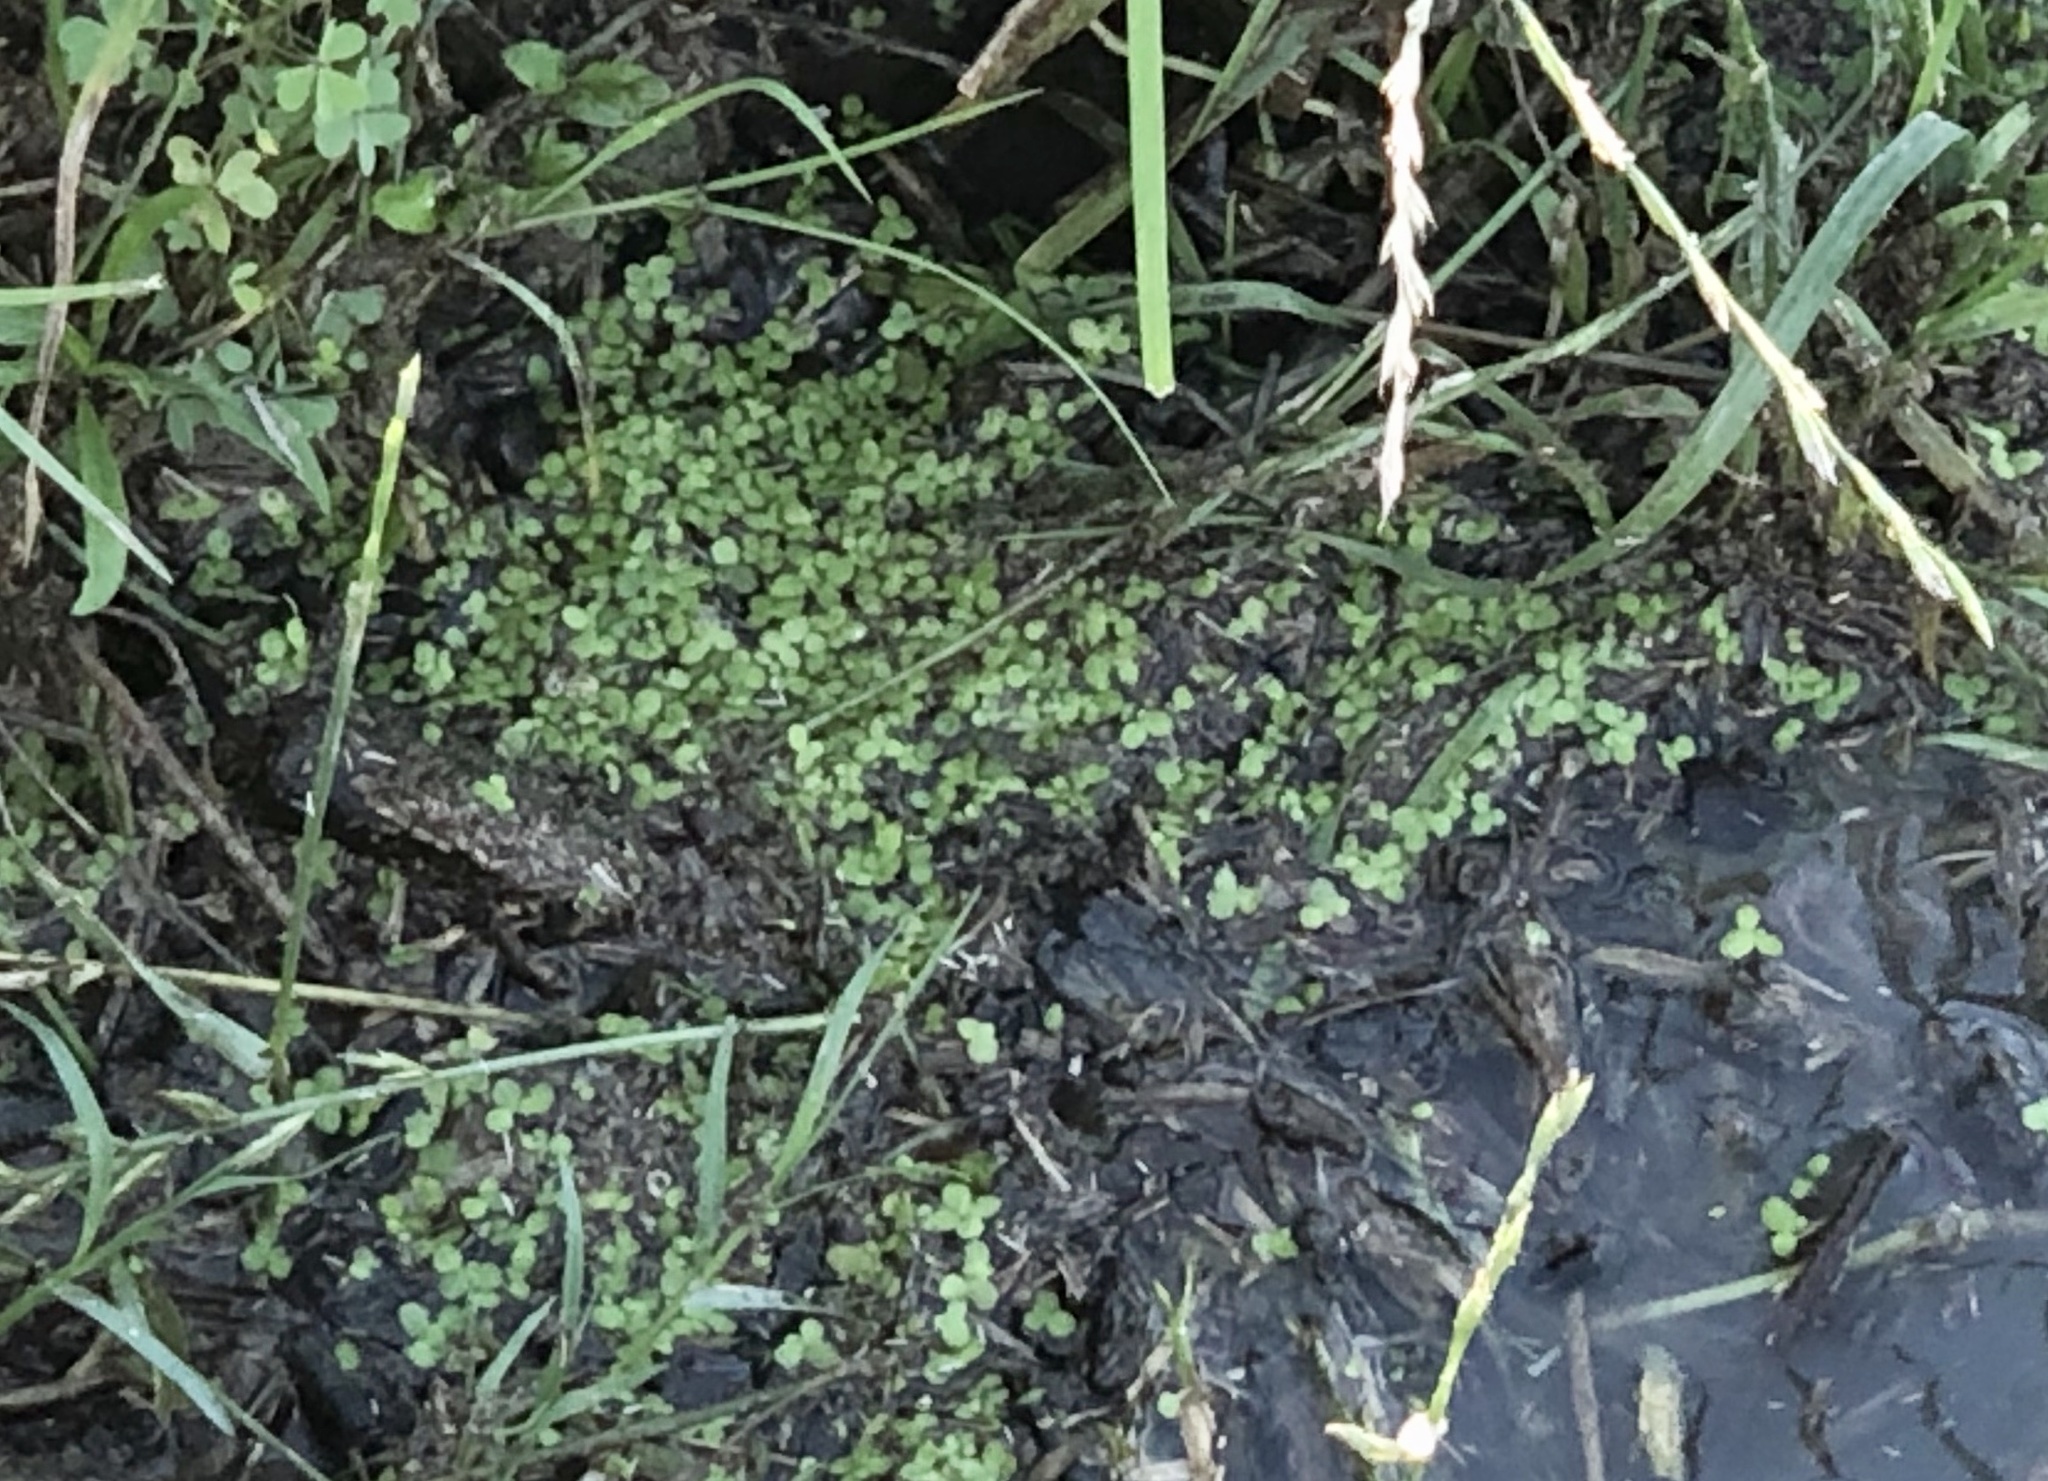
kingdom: Plantae
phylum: Tracheophyta
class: Liliopsida
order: Alismatales
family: Araceae
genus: Lemna
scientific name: Lemna minor
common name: Common duckweed
